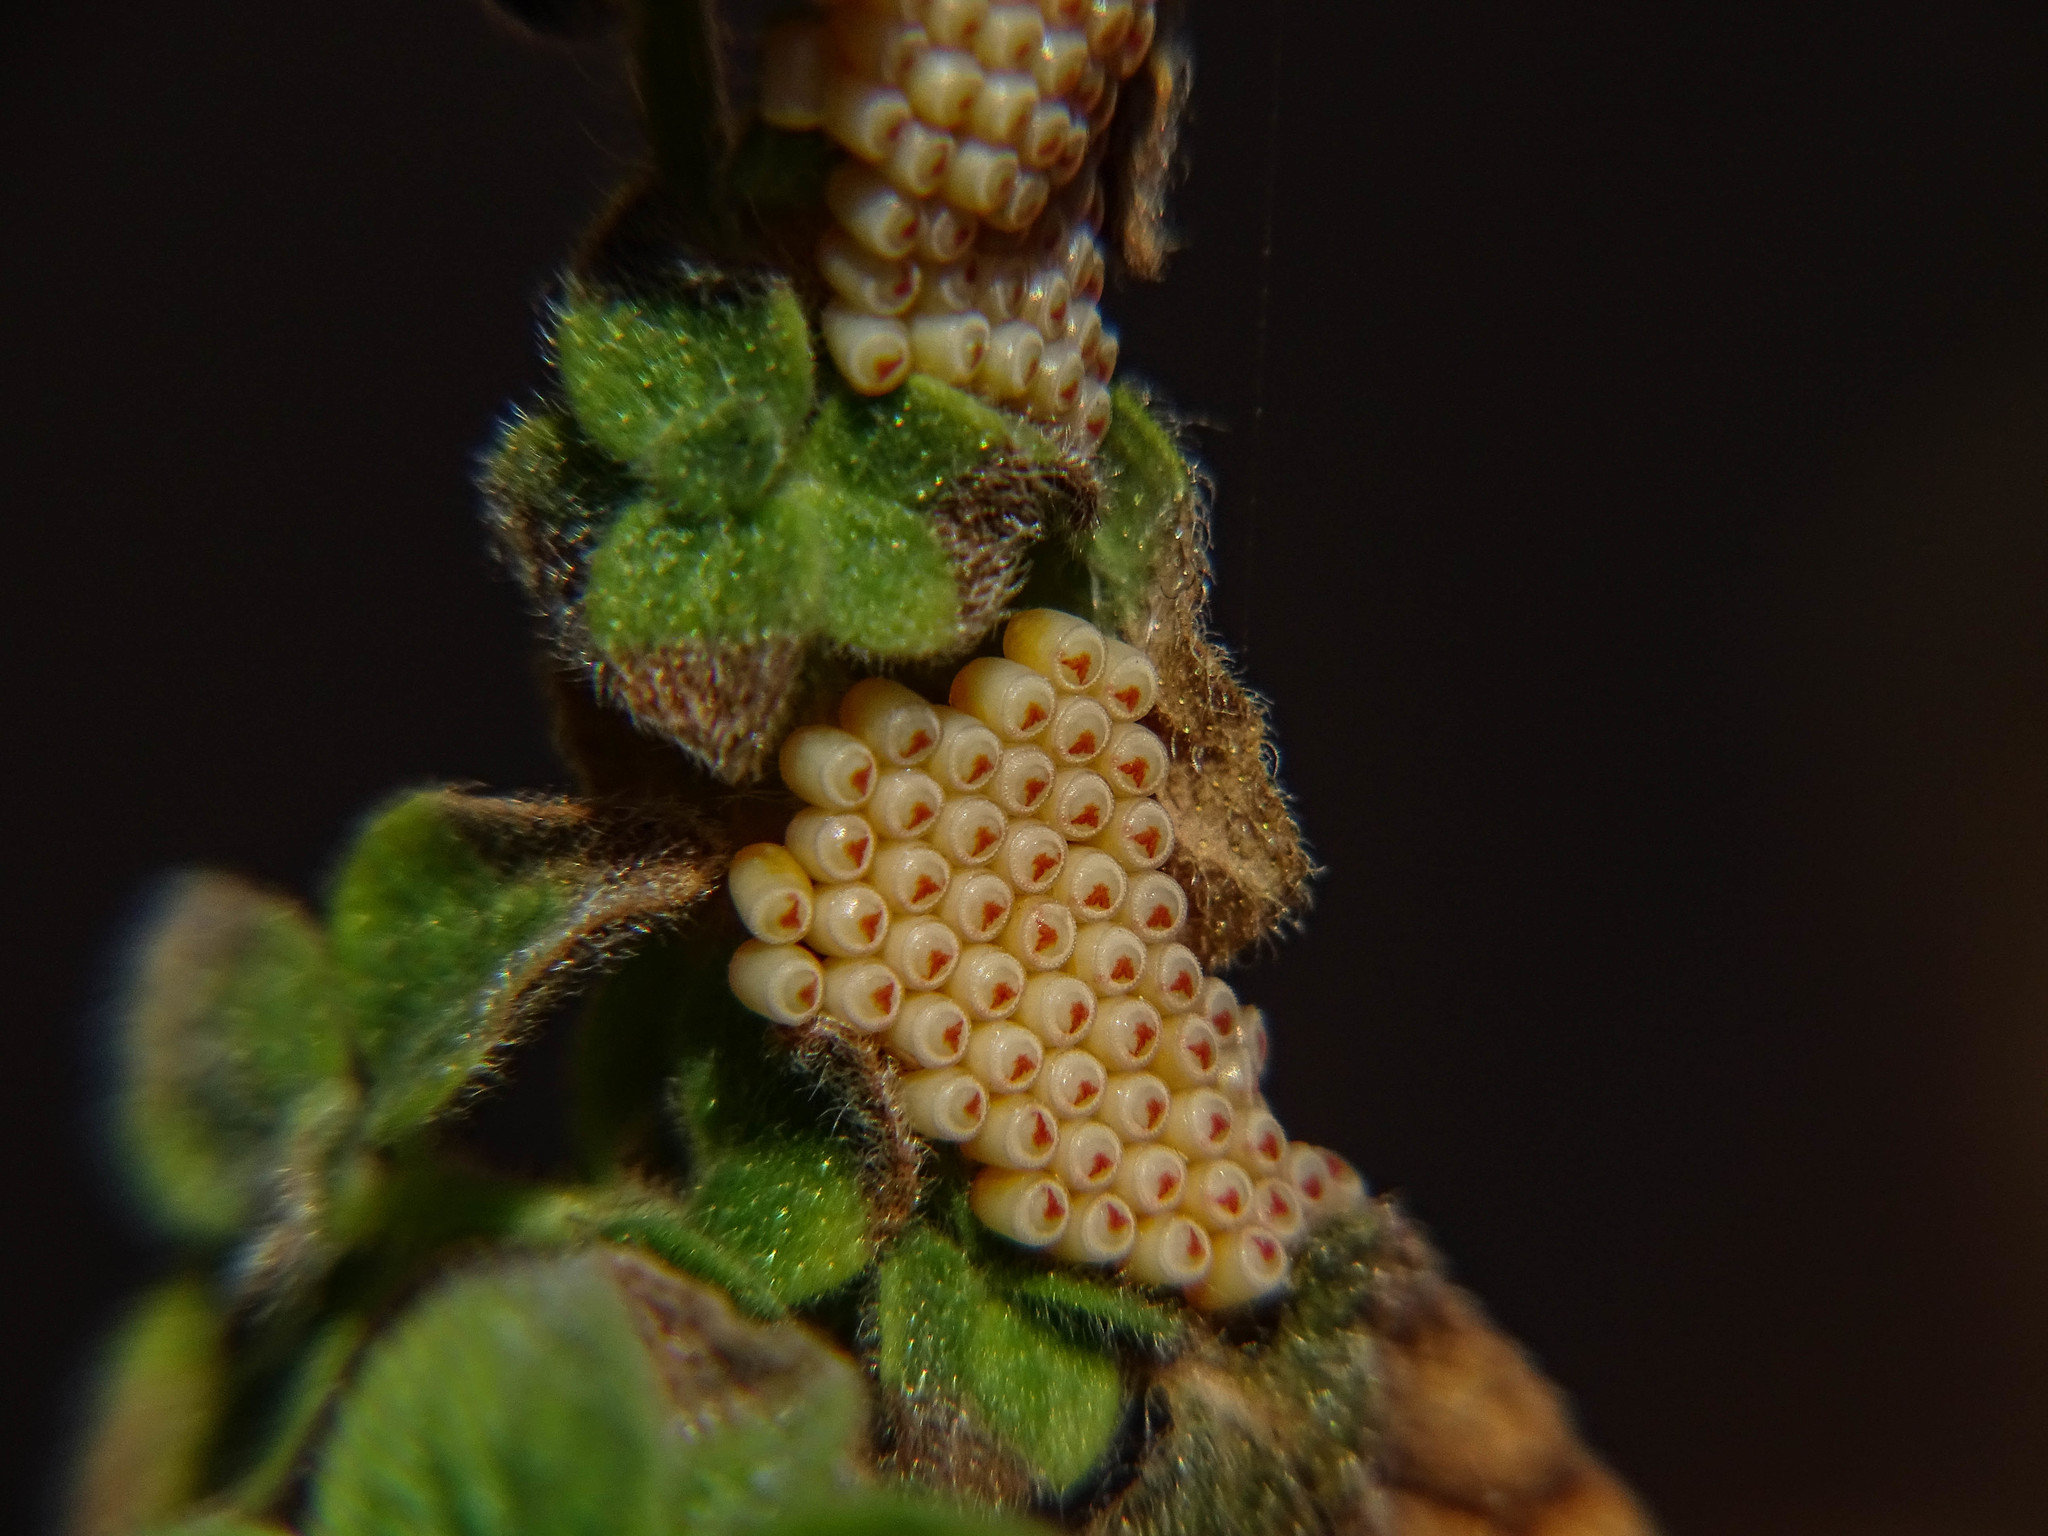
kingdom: Animalia
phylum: Arthropoda
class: Insecta
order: Hemiptera
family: Pentatomidae
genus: Nezara
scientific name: Nezara viridula
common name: Southern green stink bug
